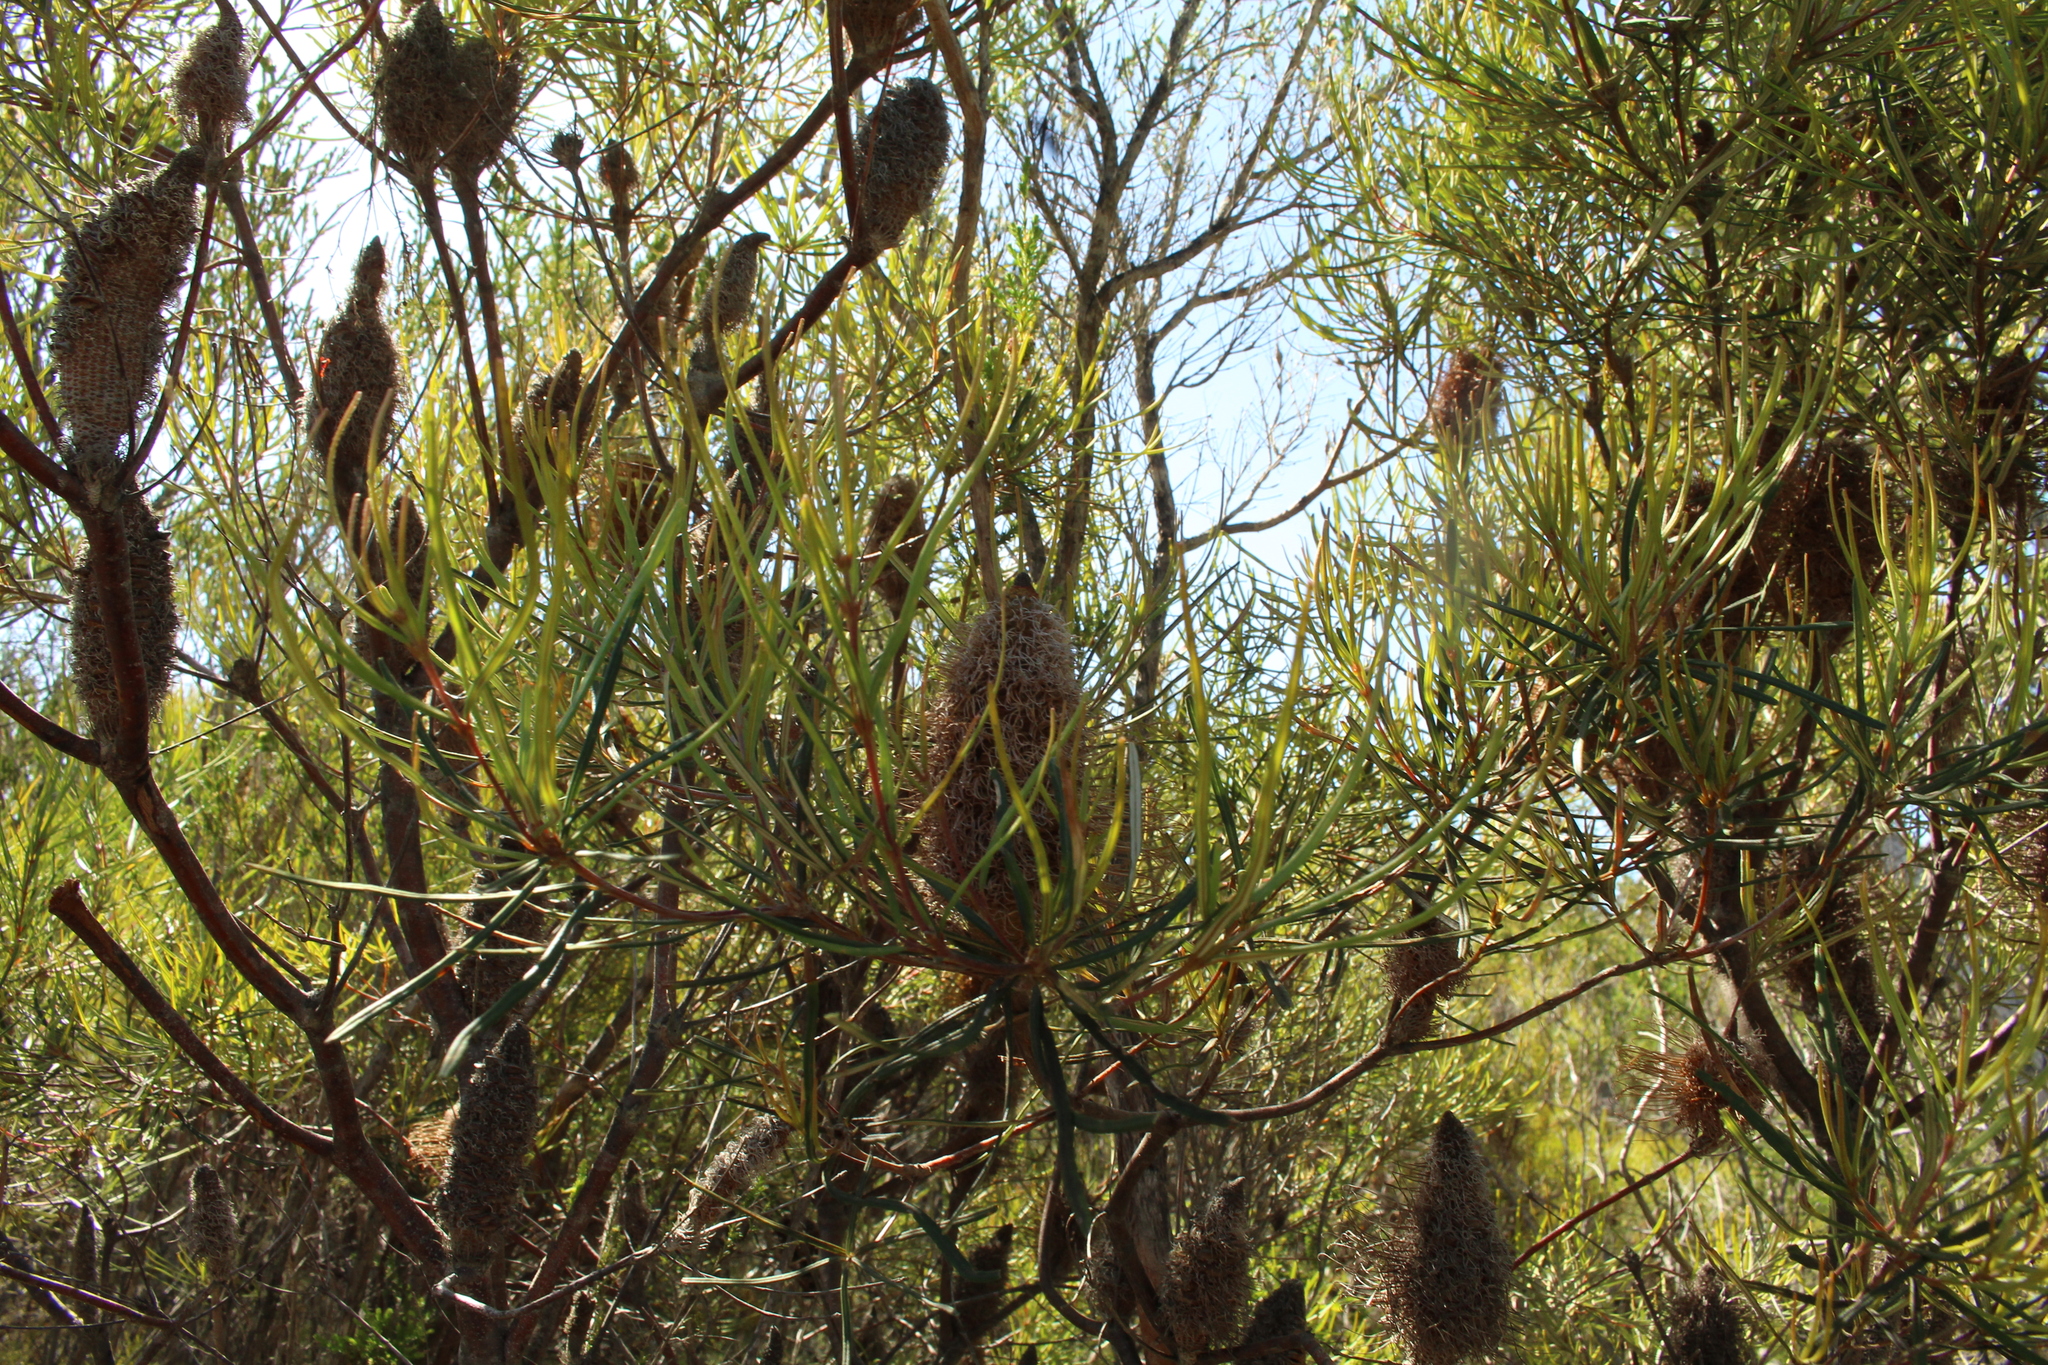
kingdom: Plantae
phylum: Tracheophyta
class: Magnoliopsida
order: Proteales
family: Proteaceae
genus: Banksia
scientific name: Banksia littoralis
